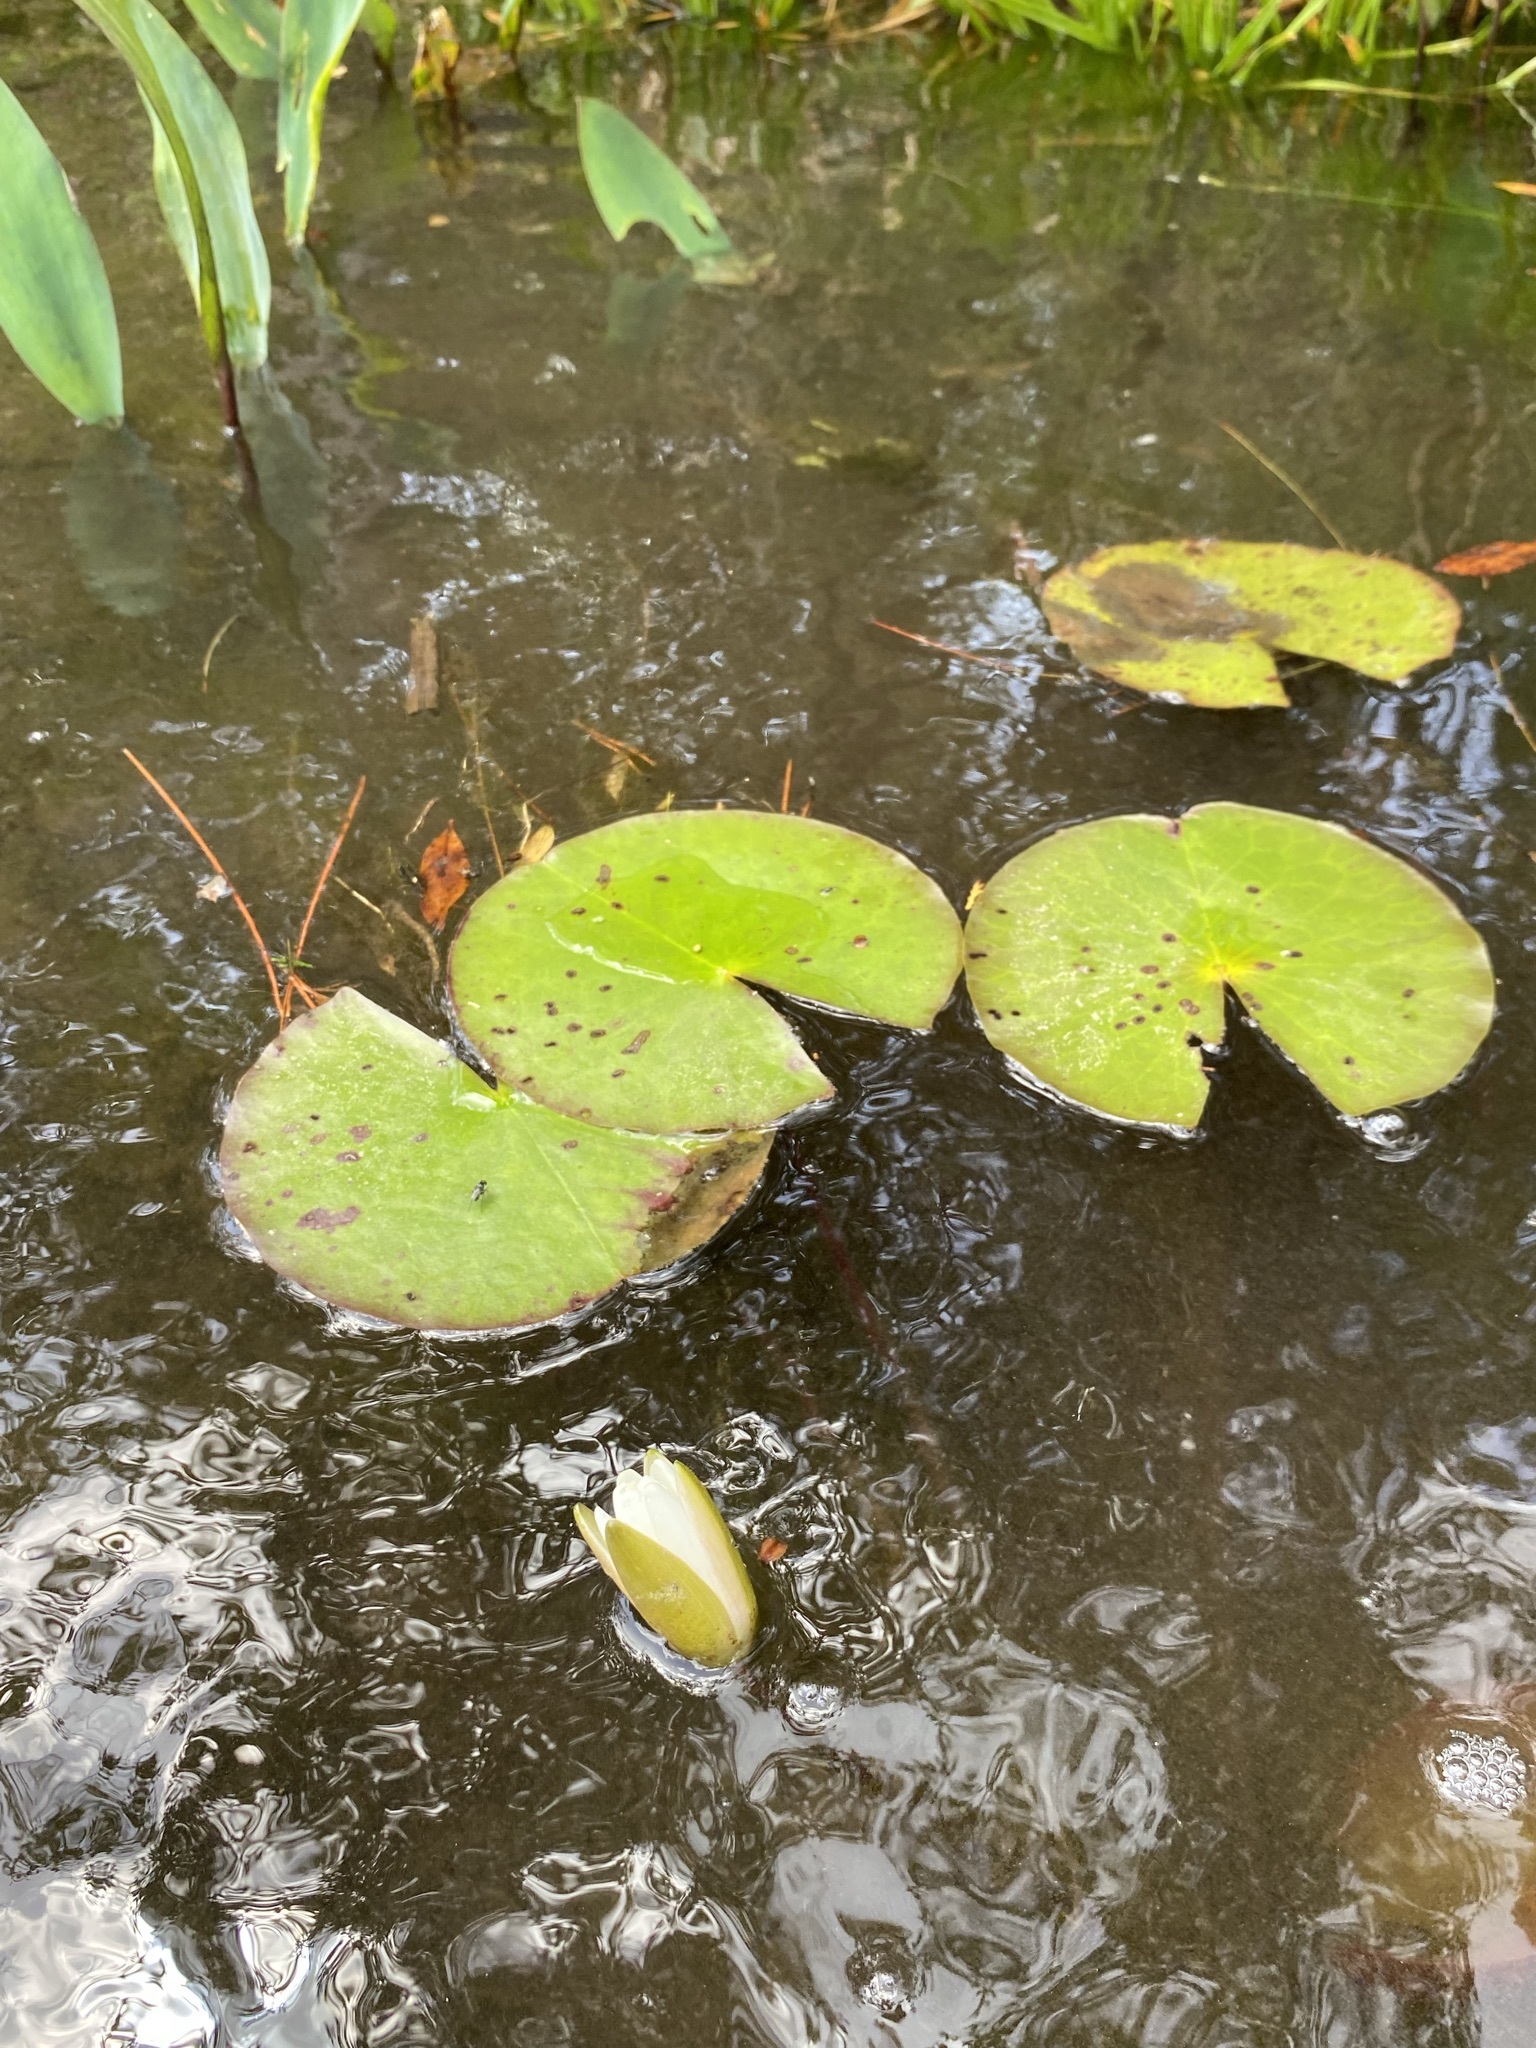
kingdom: Plantae
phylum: Tracheophyta
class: Magnoliopsida
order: Nymphaeales
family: Nymphaeaceae
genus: Nymphaea
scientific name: Nymphaea odorata
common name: Fragrant water-lily
